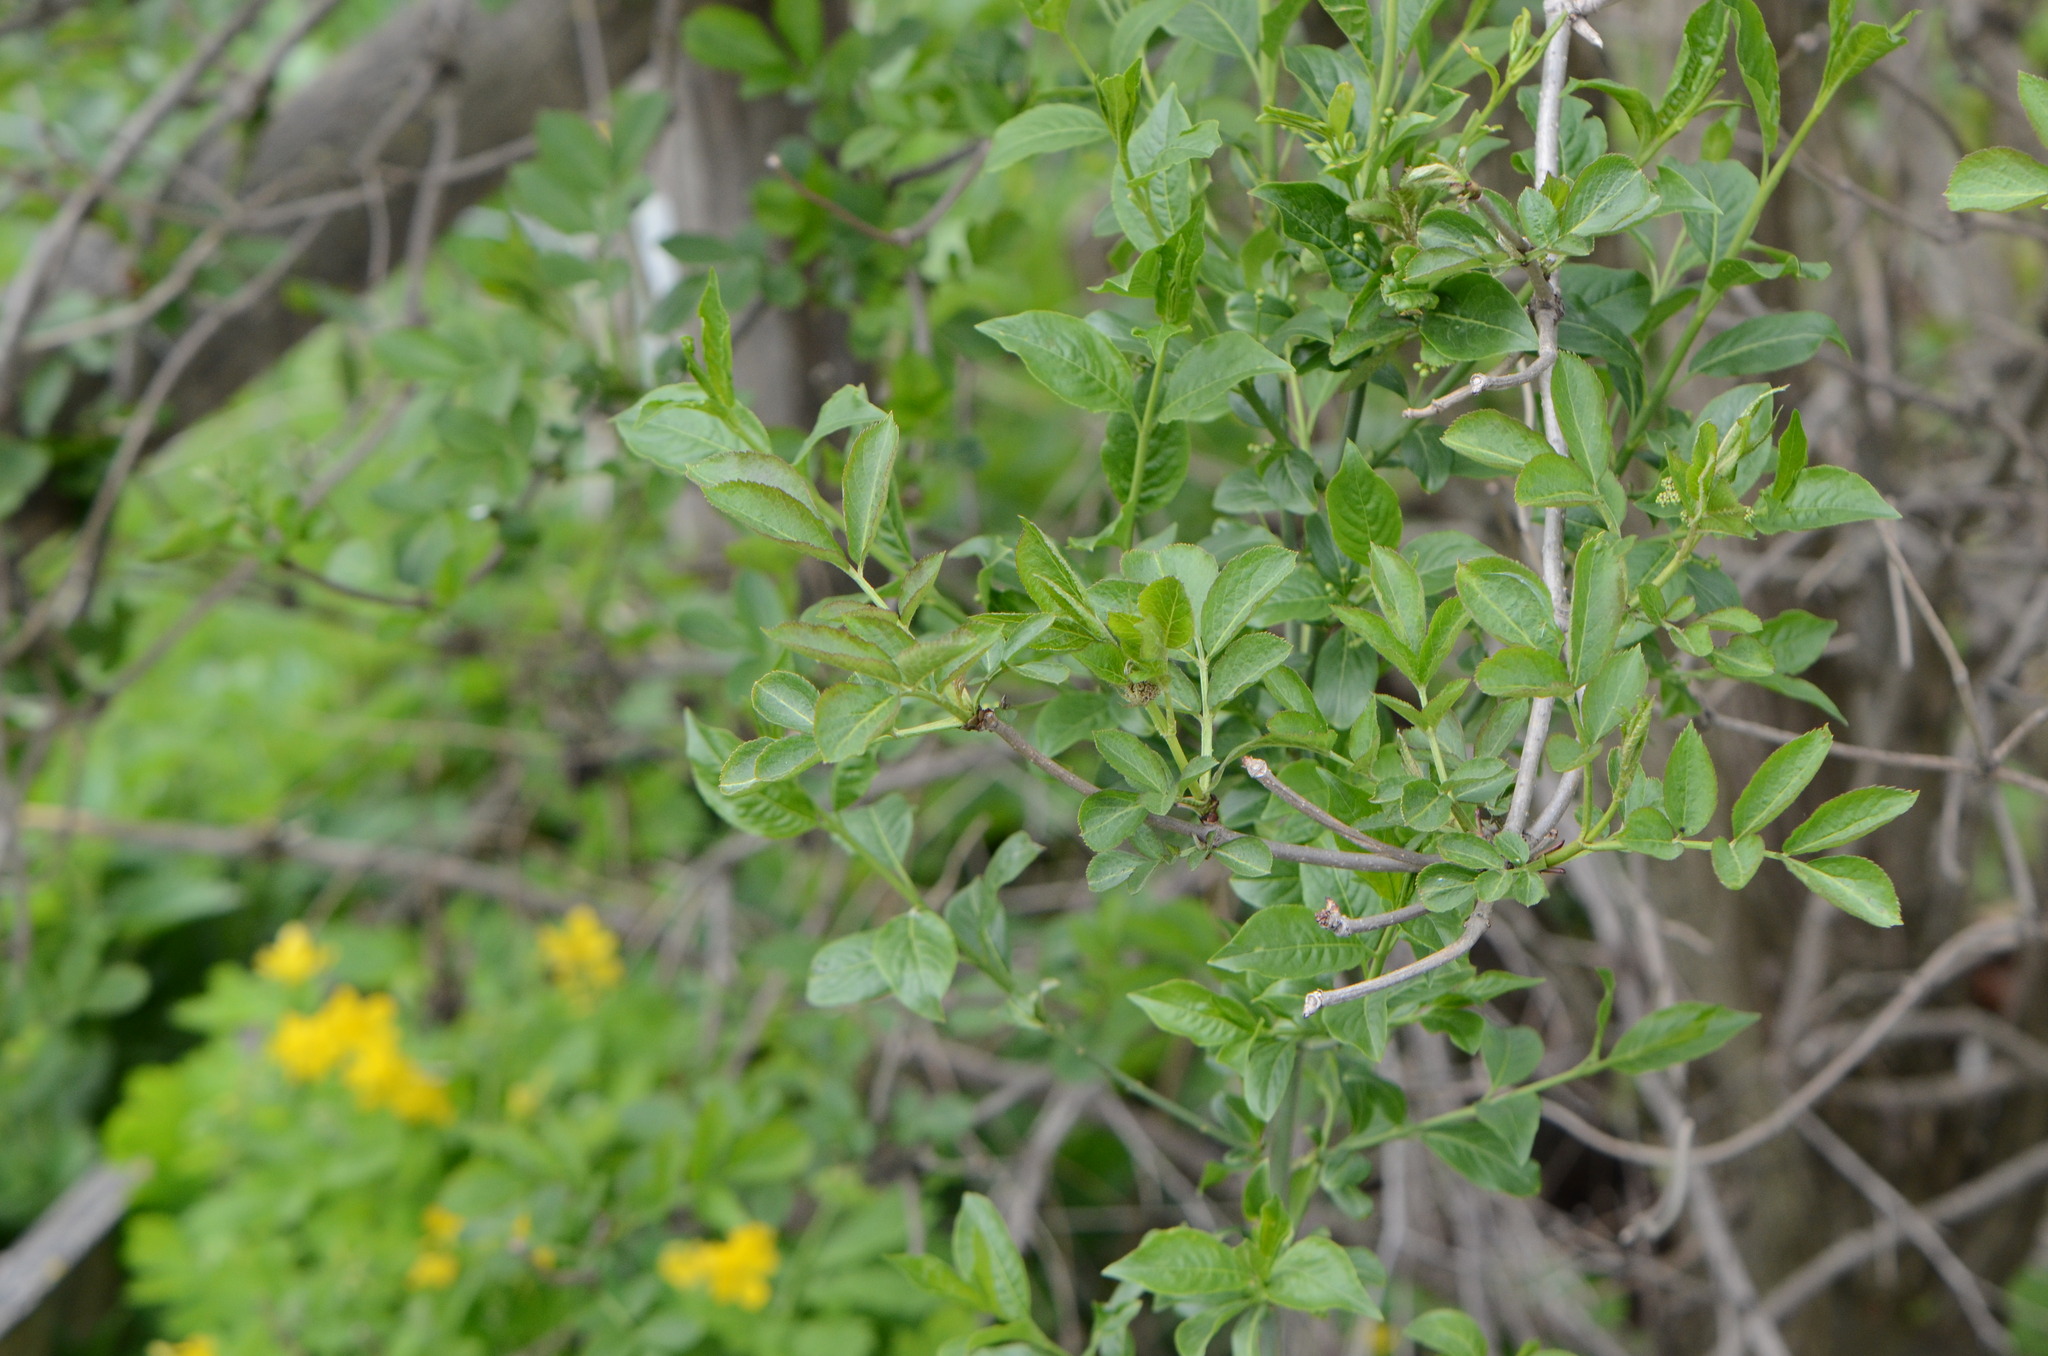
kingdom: Plantae
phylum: Tracheophyta
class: Magnoliopsida
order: Dipsacales
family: Viburnaceae
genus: Sambucus
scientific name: Sambucus nigra
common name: Elder
